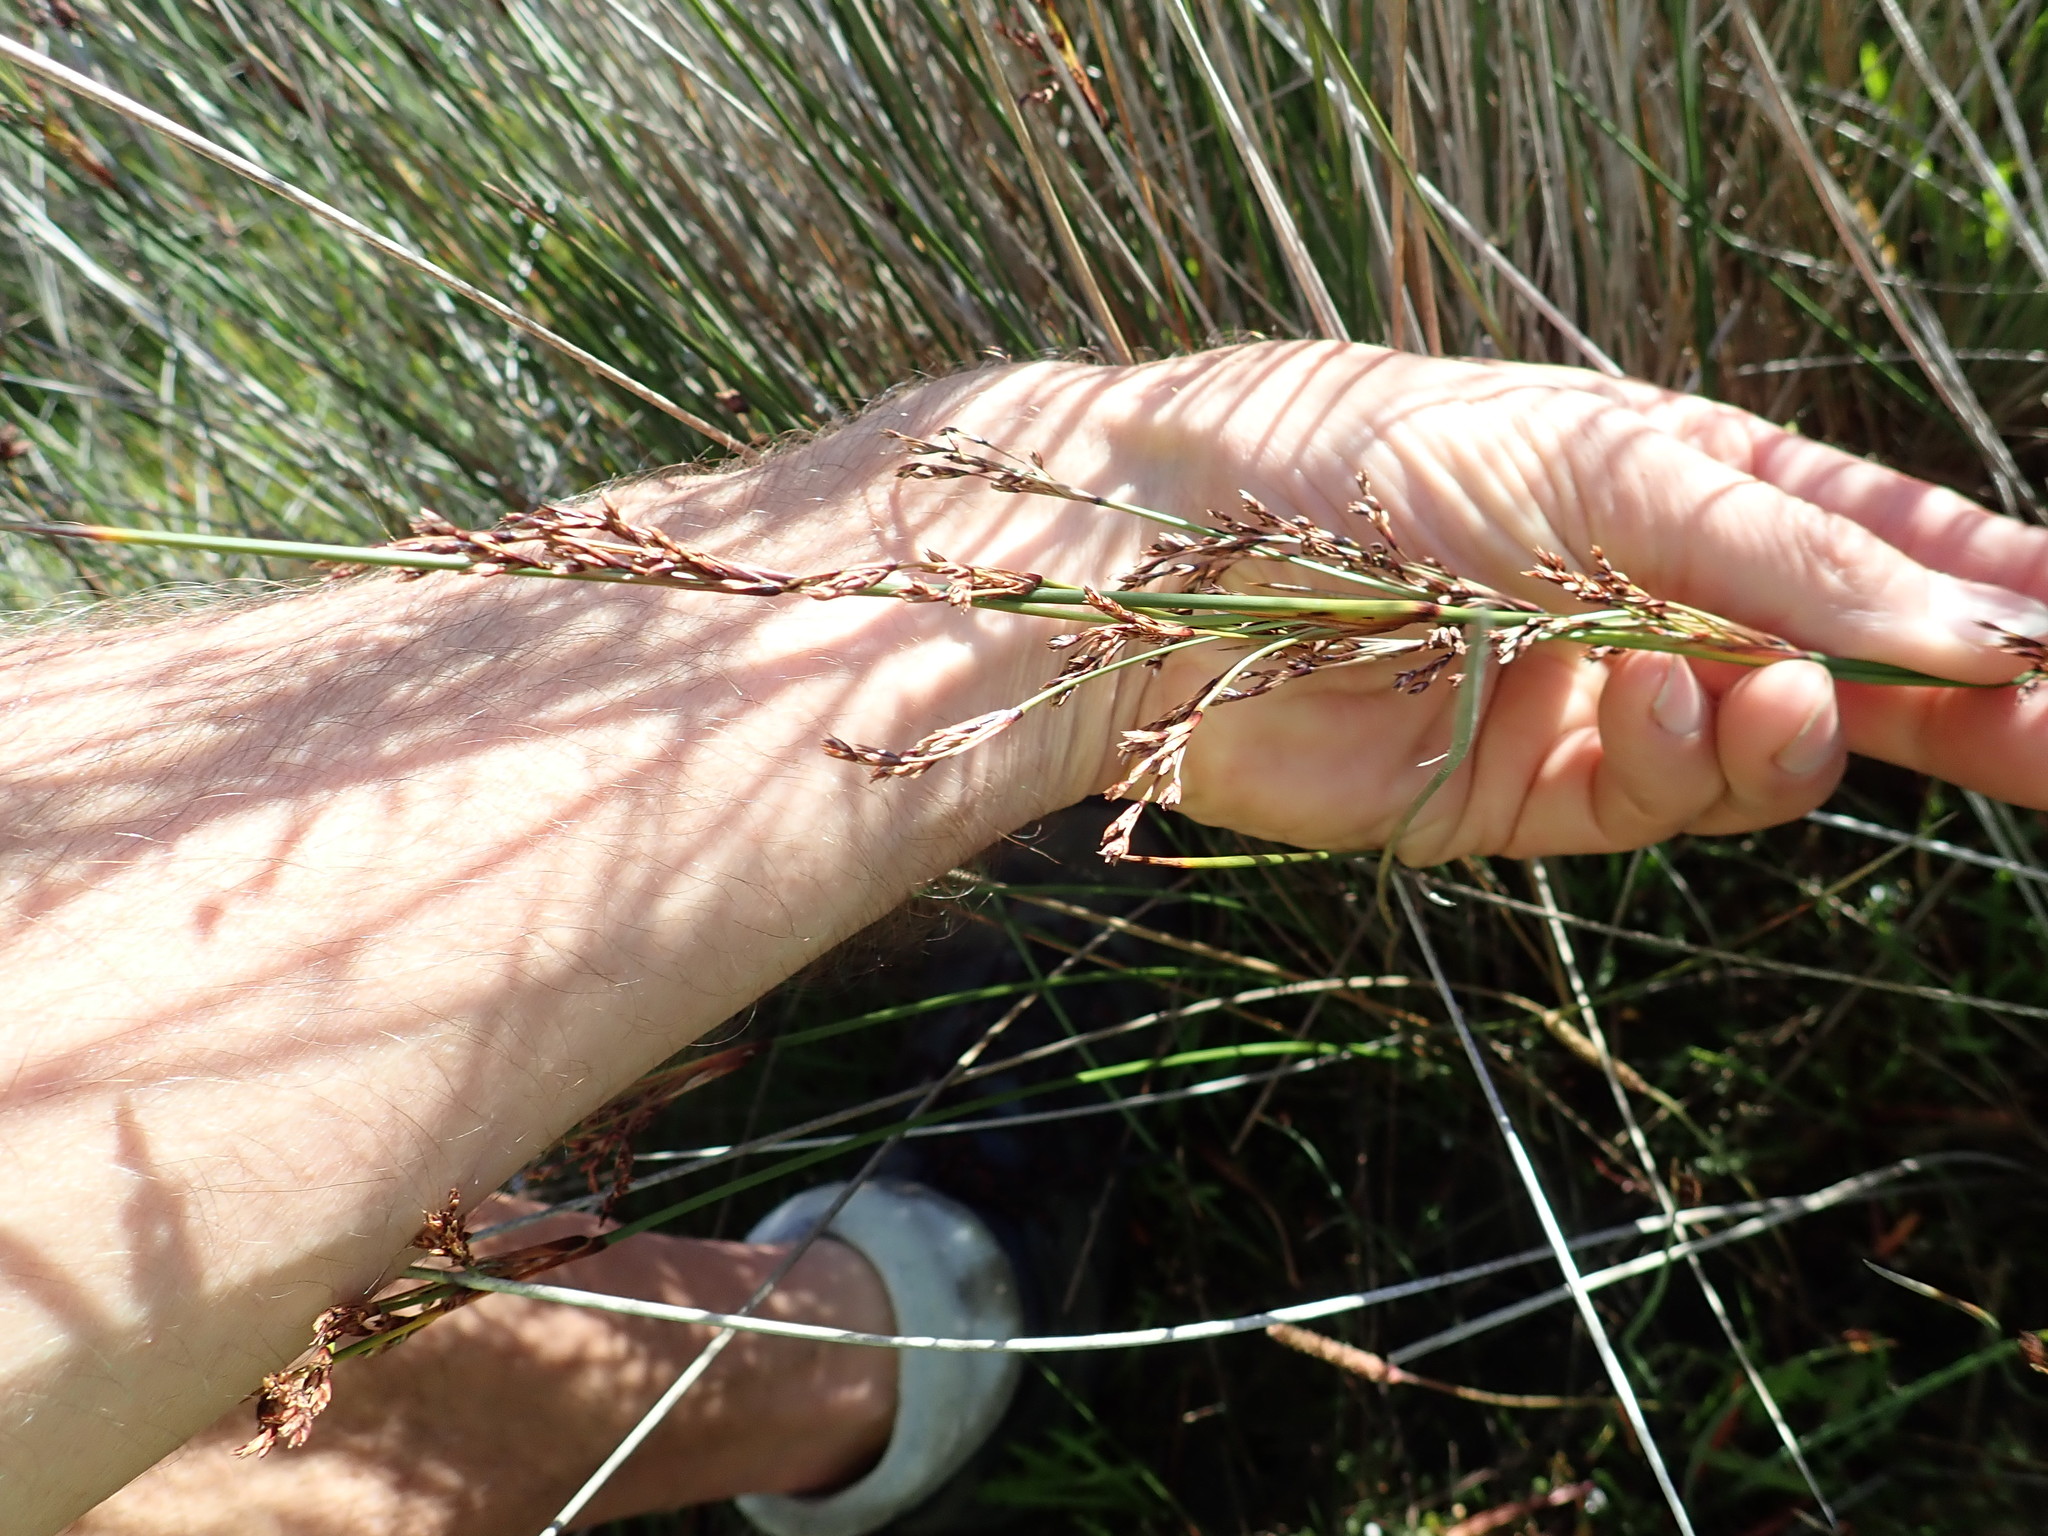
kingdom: Plantae
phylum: Tracheophyta
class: Liliopsida
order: Poales
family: Juncaceae
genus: Juncus
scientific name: Juncus kraussii
